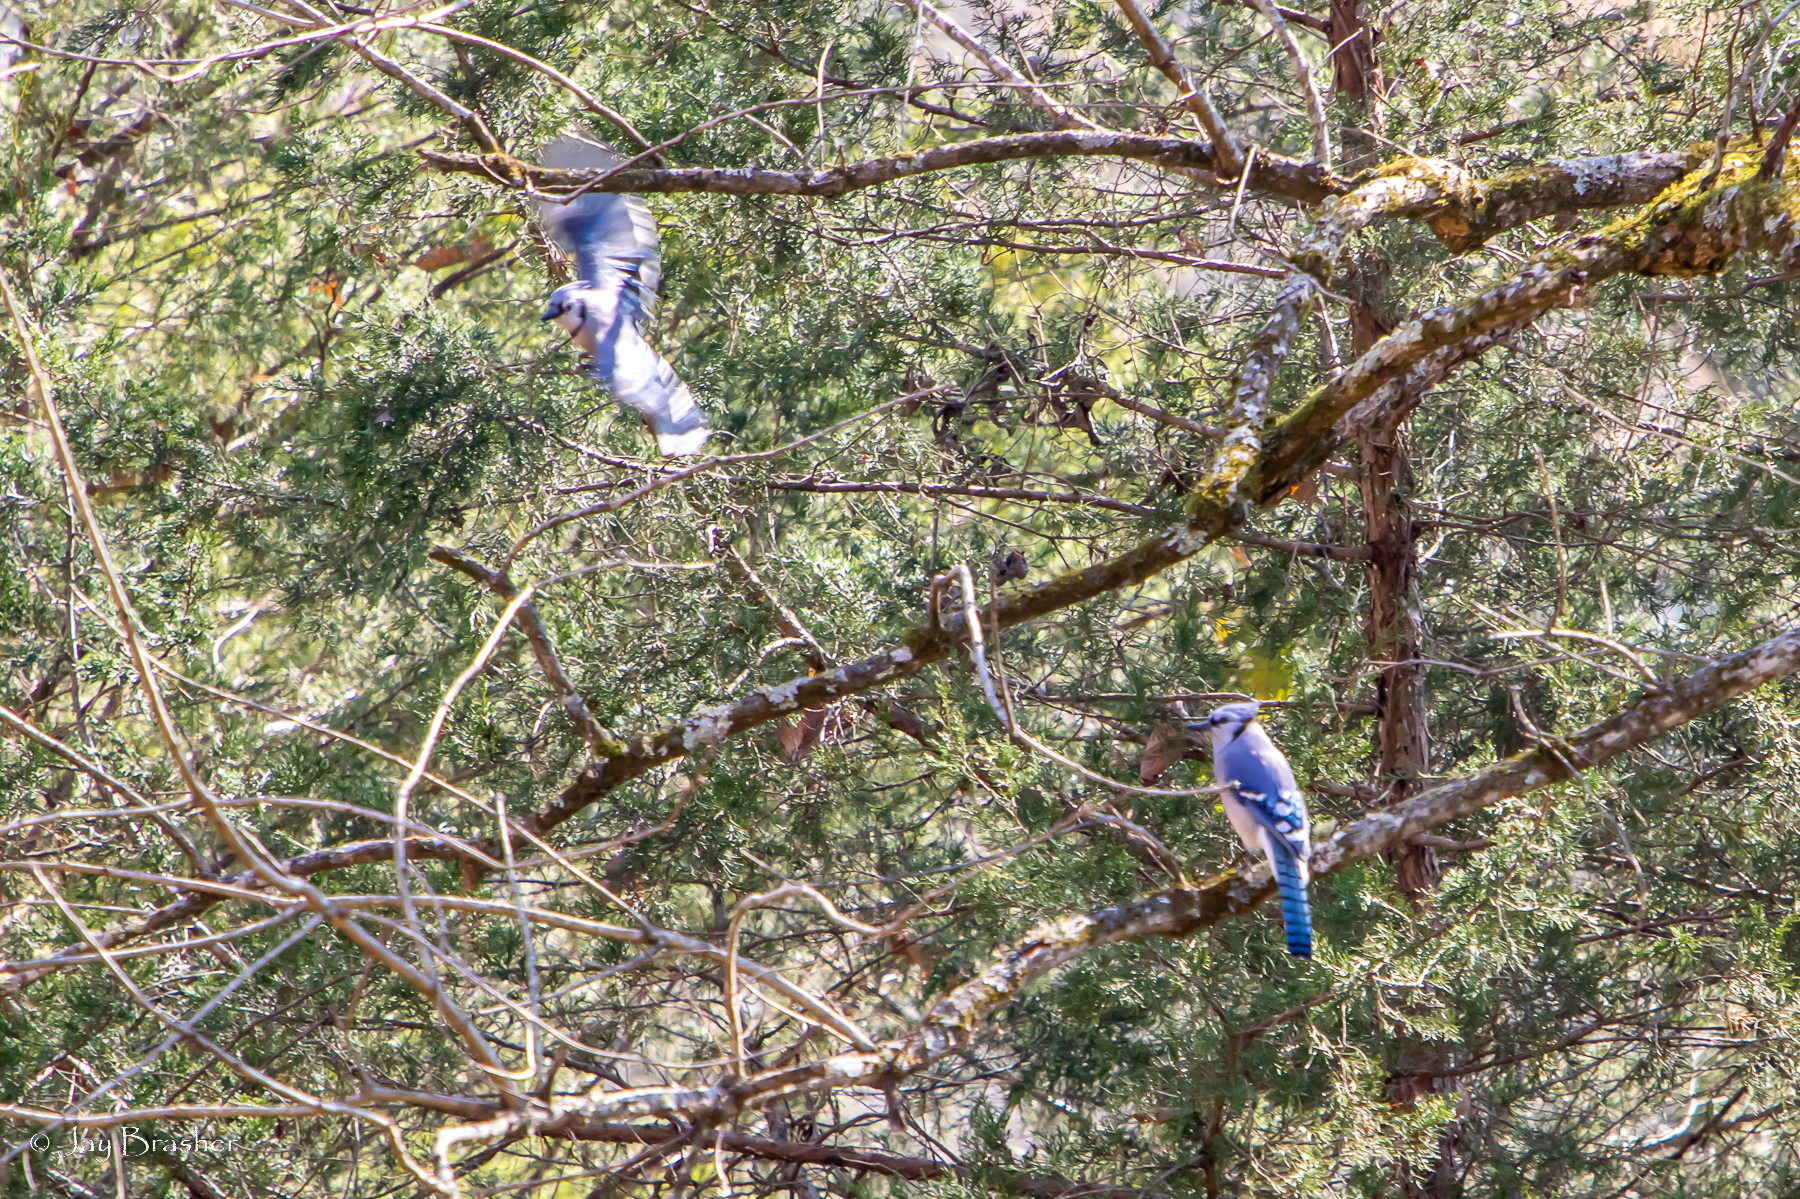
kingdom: Animalia
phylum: Chordata
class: Aves
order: Passeriformes
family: Corvidae
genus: Cyanocitta
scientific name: Cyanocitta cristata
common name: Blue jay
